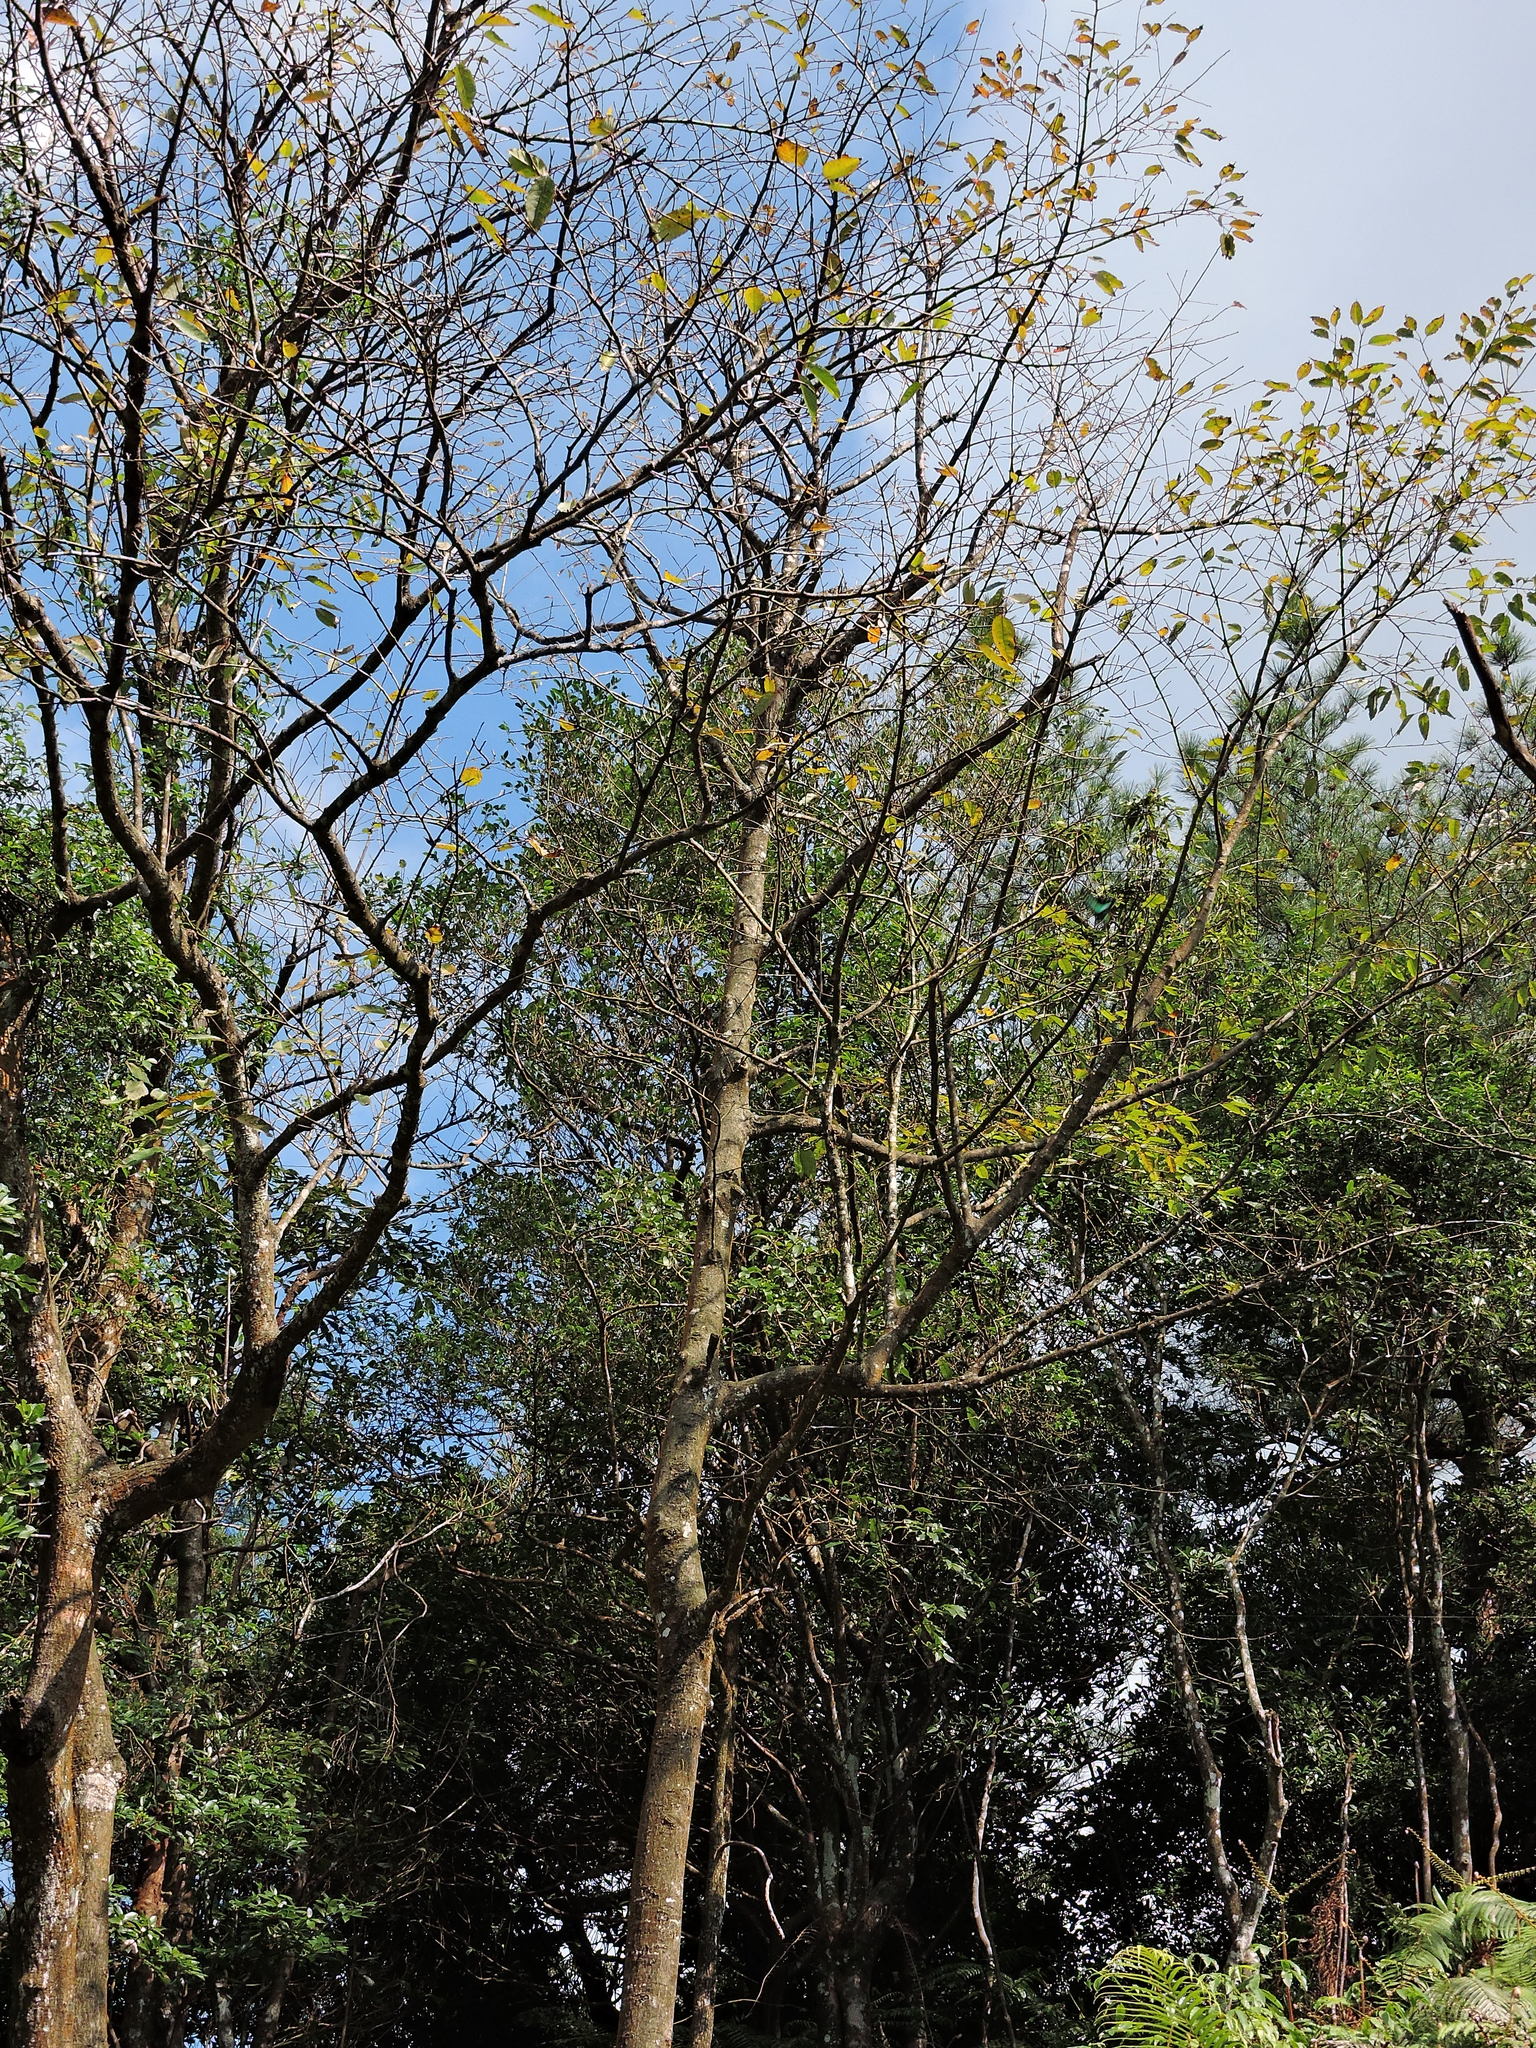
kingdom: Plantae
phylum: Tracheophyta
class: Magnoliopsida
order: Aquifoliales
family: Aquifoliaceae
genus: Ilex
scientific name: Ilex micrococca
